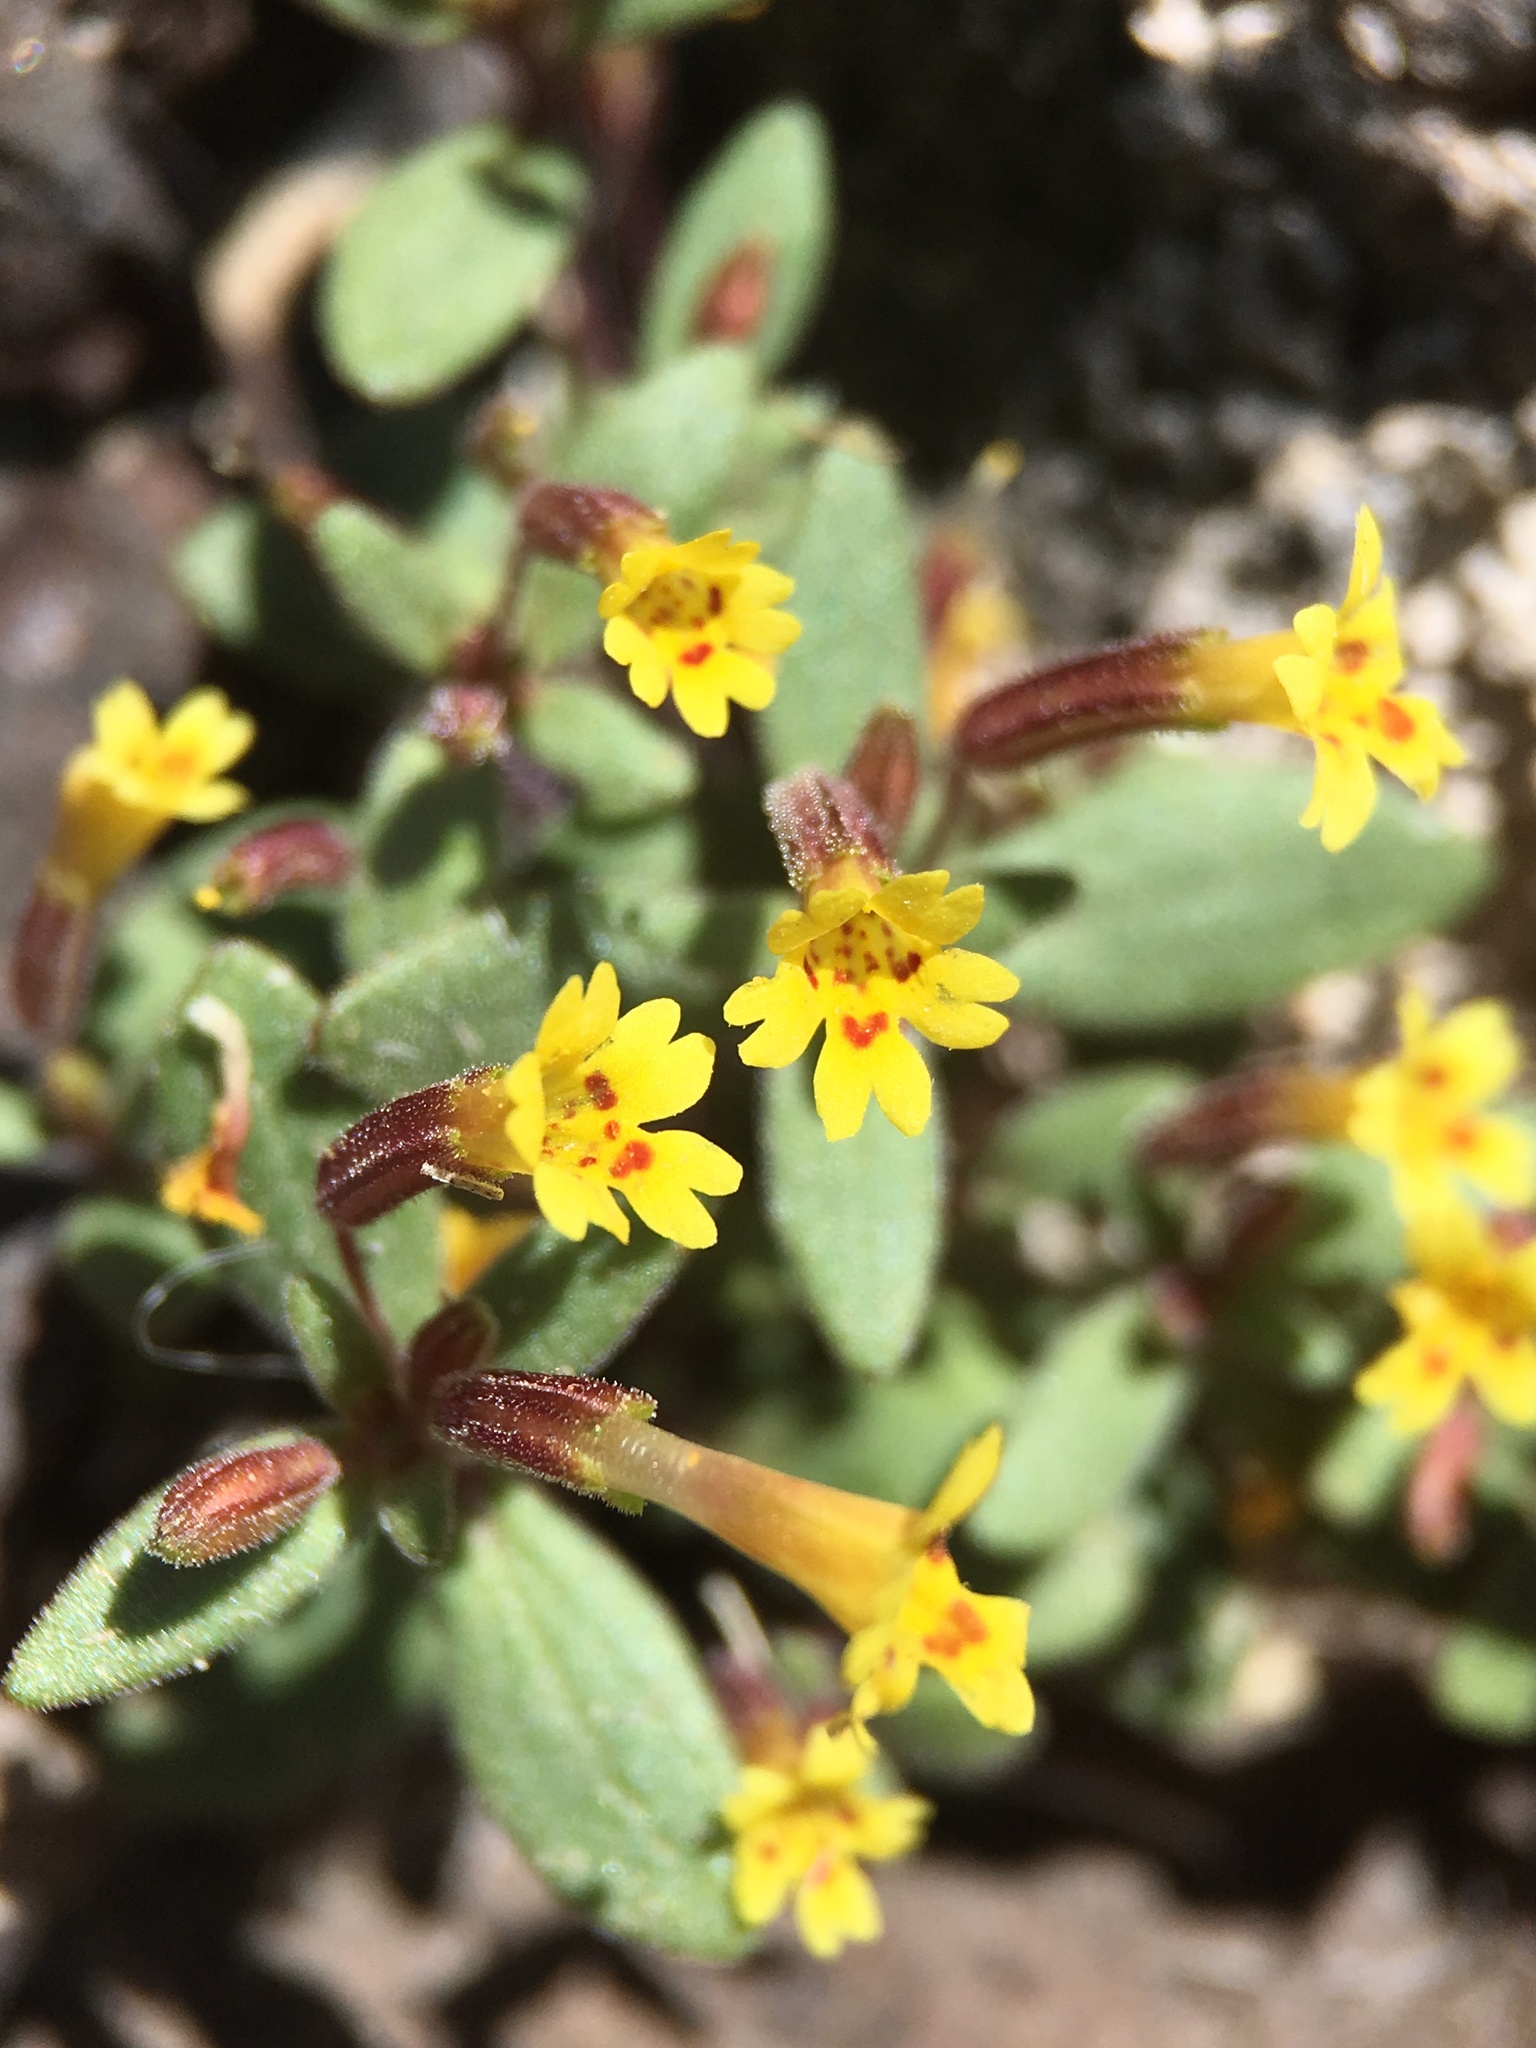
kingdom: Plantae
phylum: Tracheophyta
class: Magnoliopsida
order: Lamiales
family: Phrymaceae
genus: Erythranthe
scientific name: Erythranthe rubella
